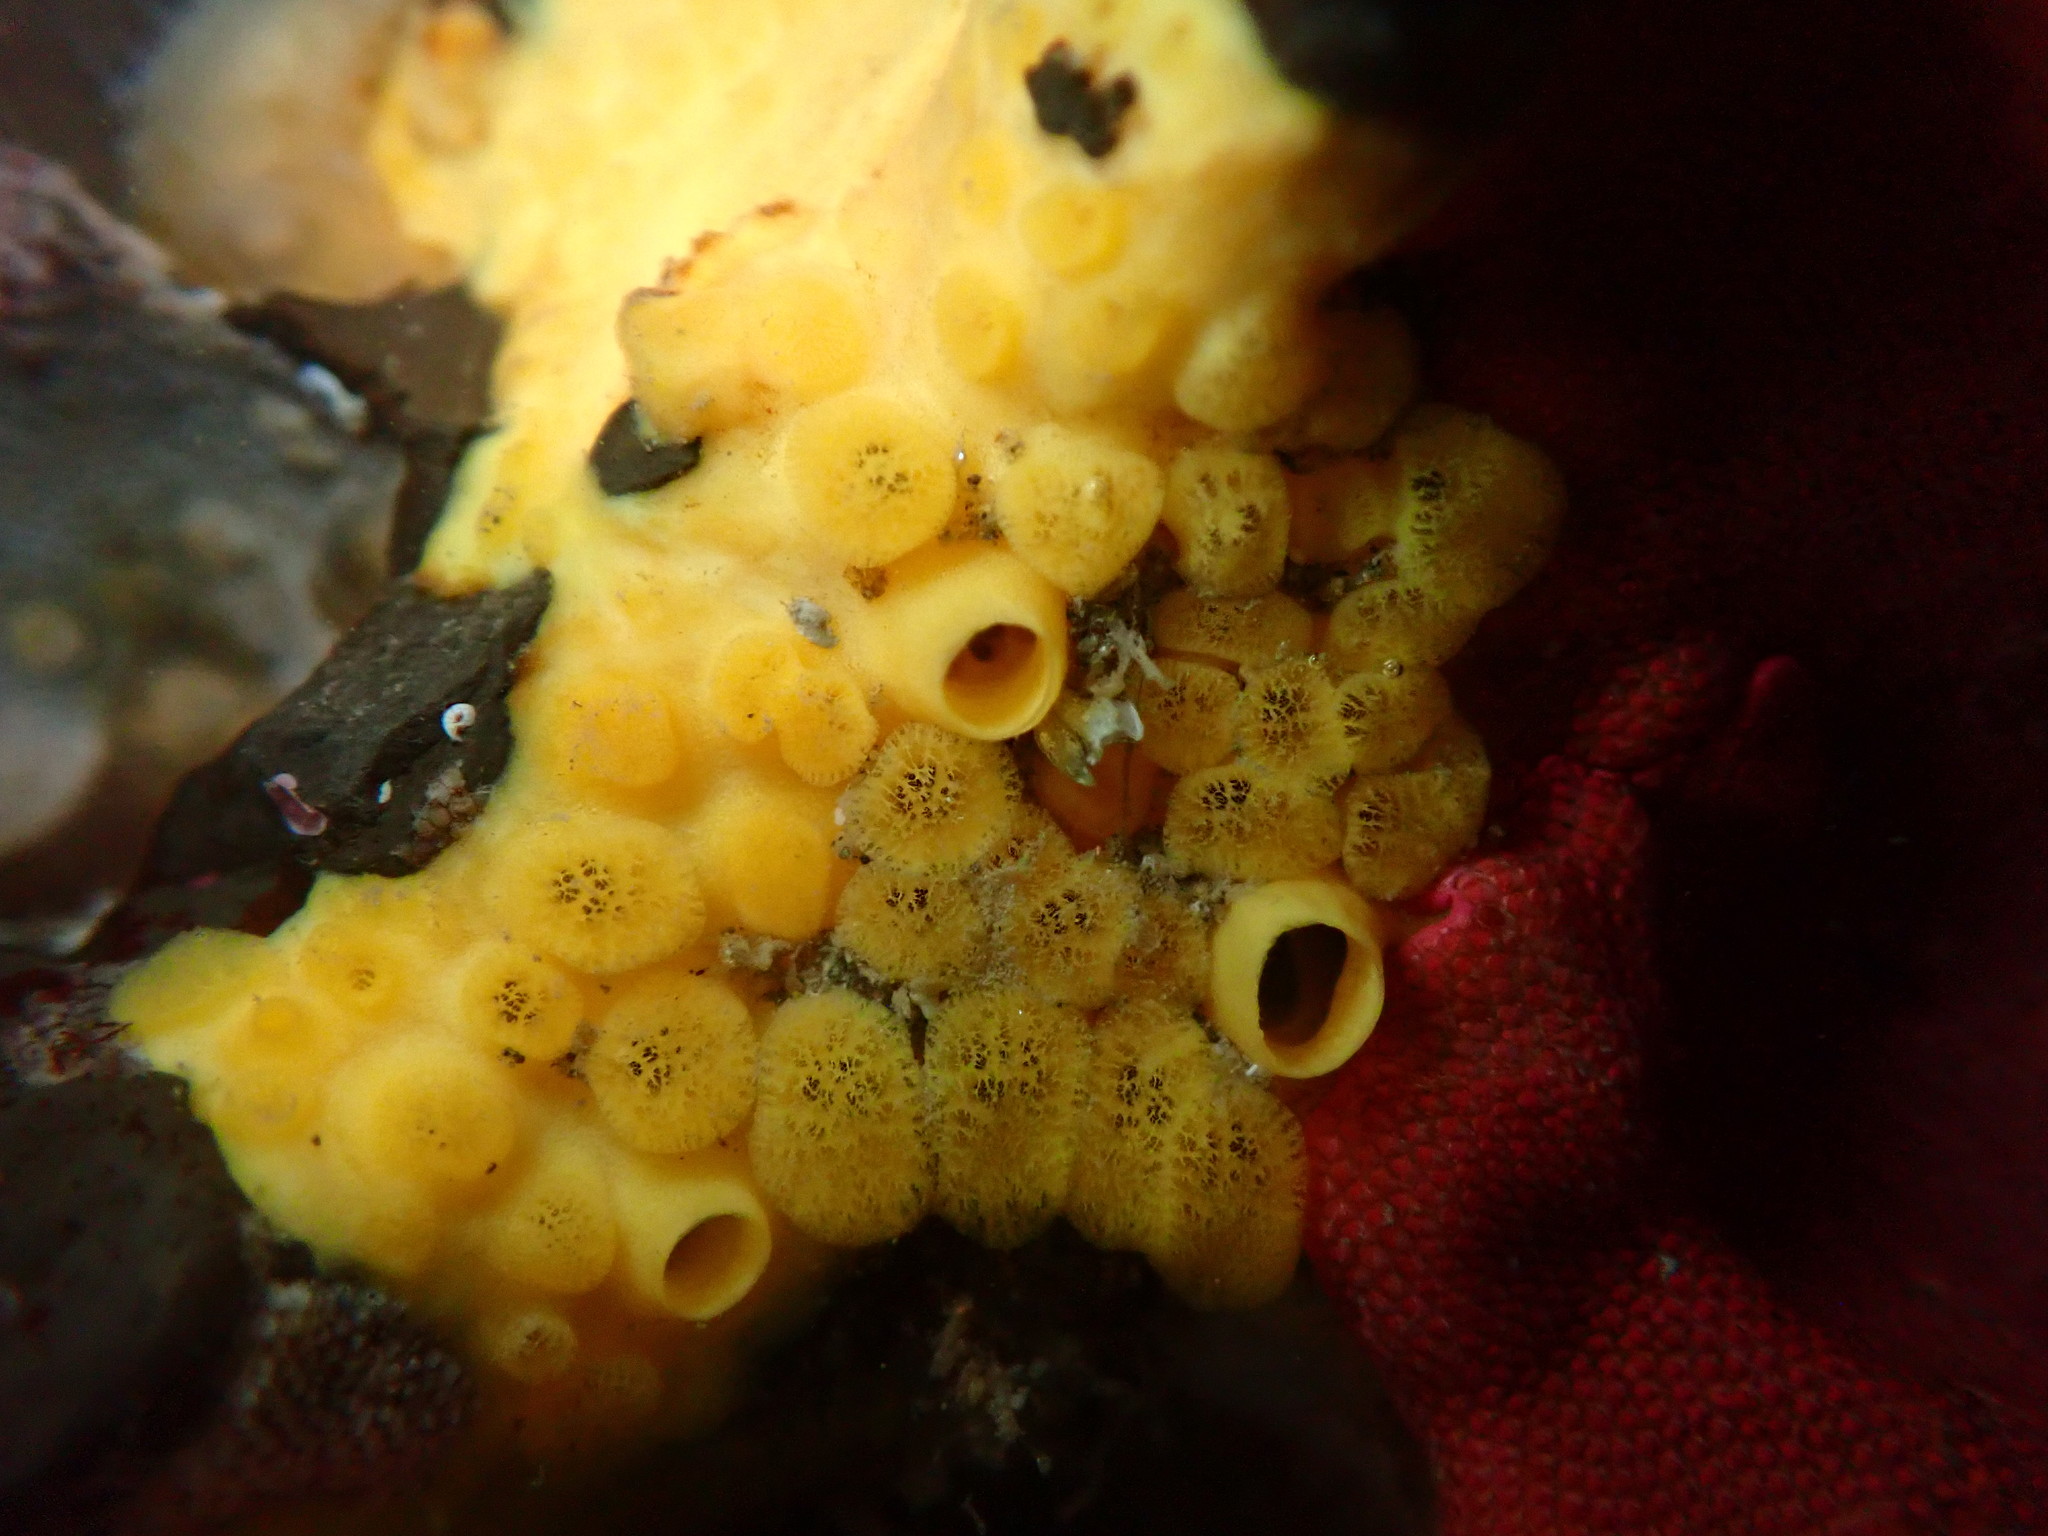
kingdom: Animalia
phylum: Porifera
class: Demospongiae
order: Clionaida
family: Clionaidae
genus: Cliona
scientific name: Cliona californiana
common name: California boring horny sponge
